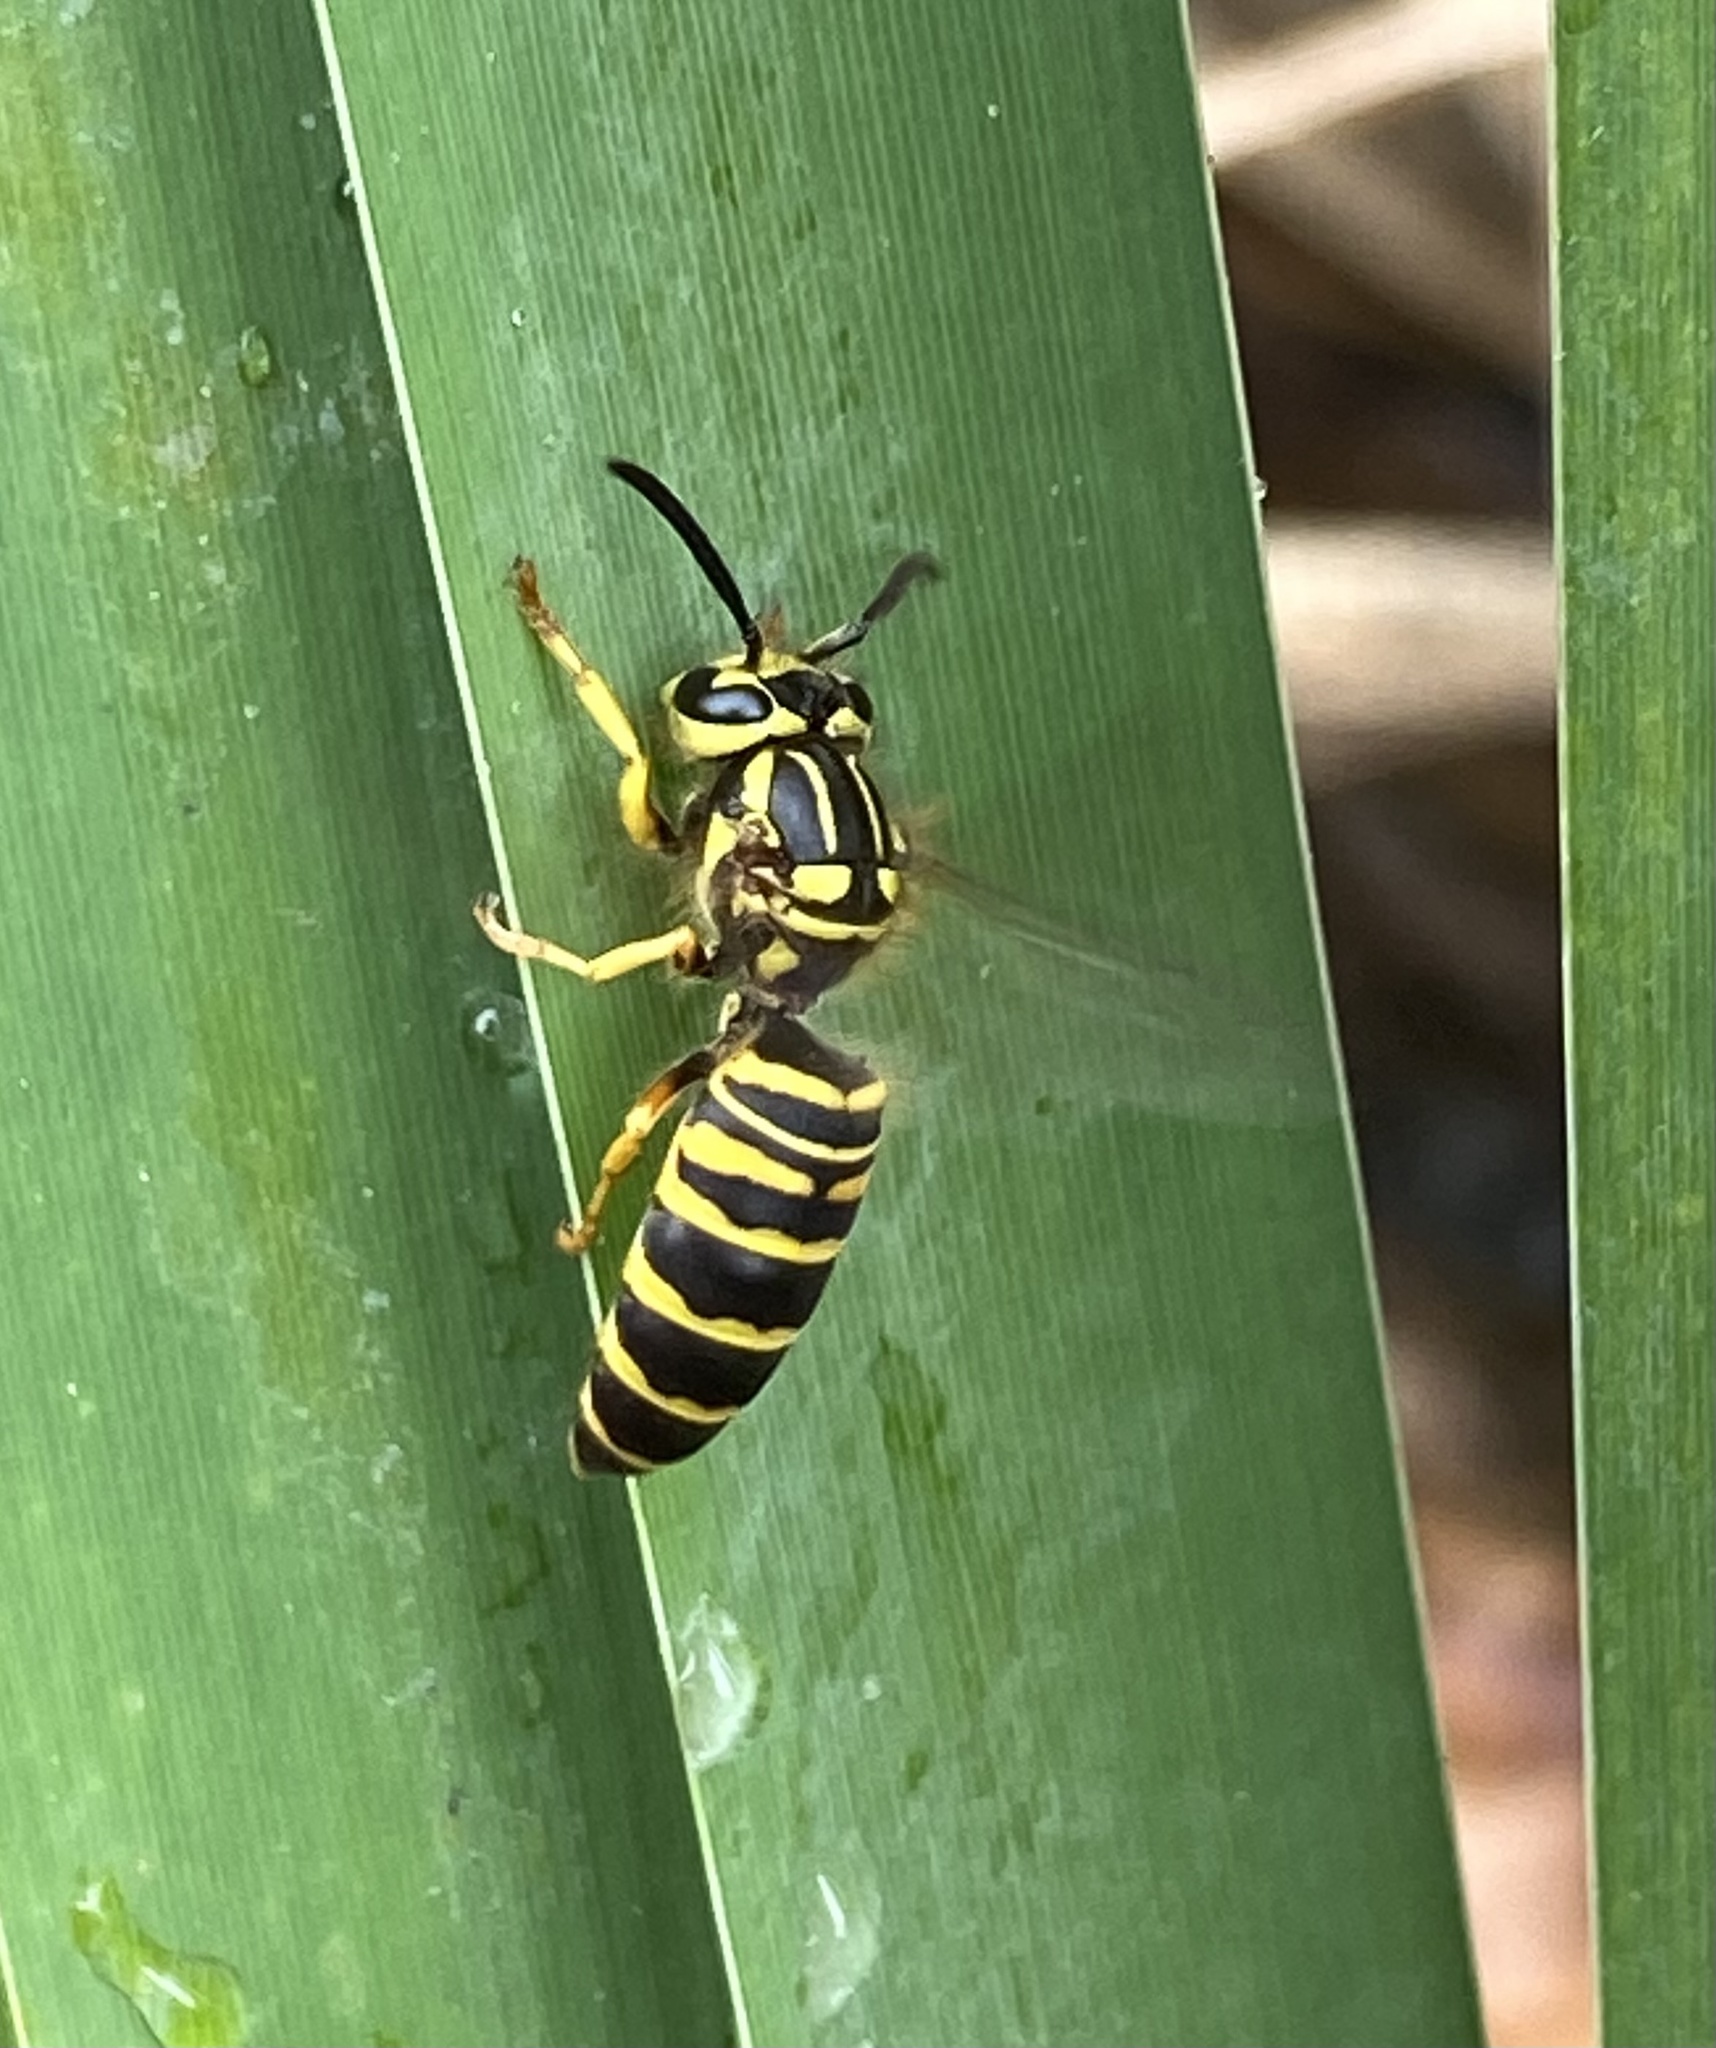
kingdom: Animalia
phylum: Arthropoda
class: Insecta
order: Hymenoptera
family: Vespidae
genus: Vespula
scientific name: Vespula squamosa
